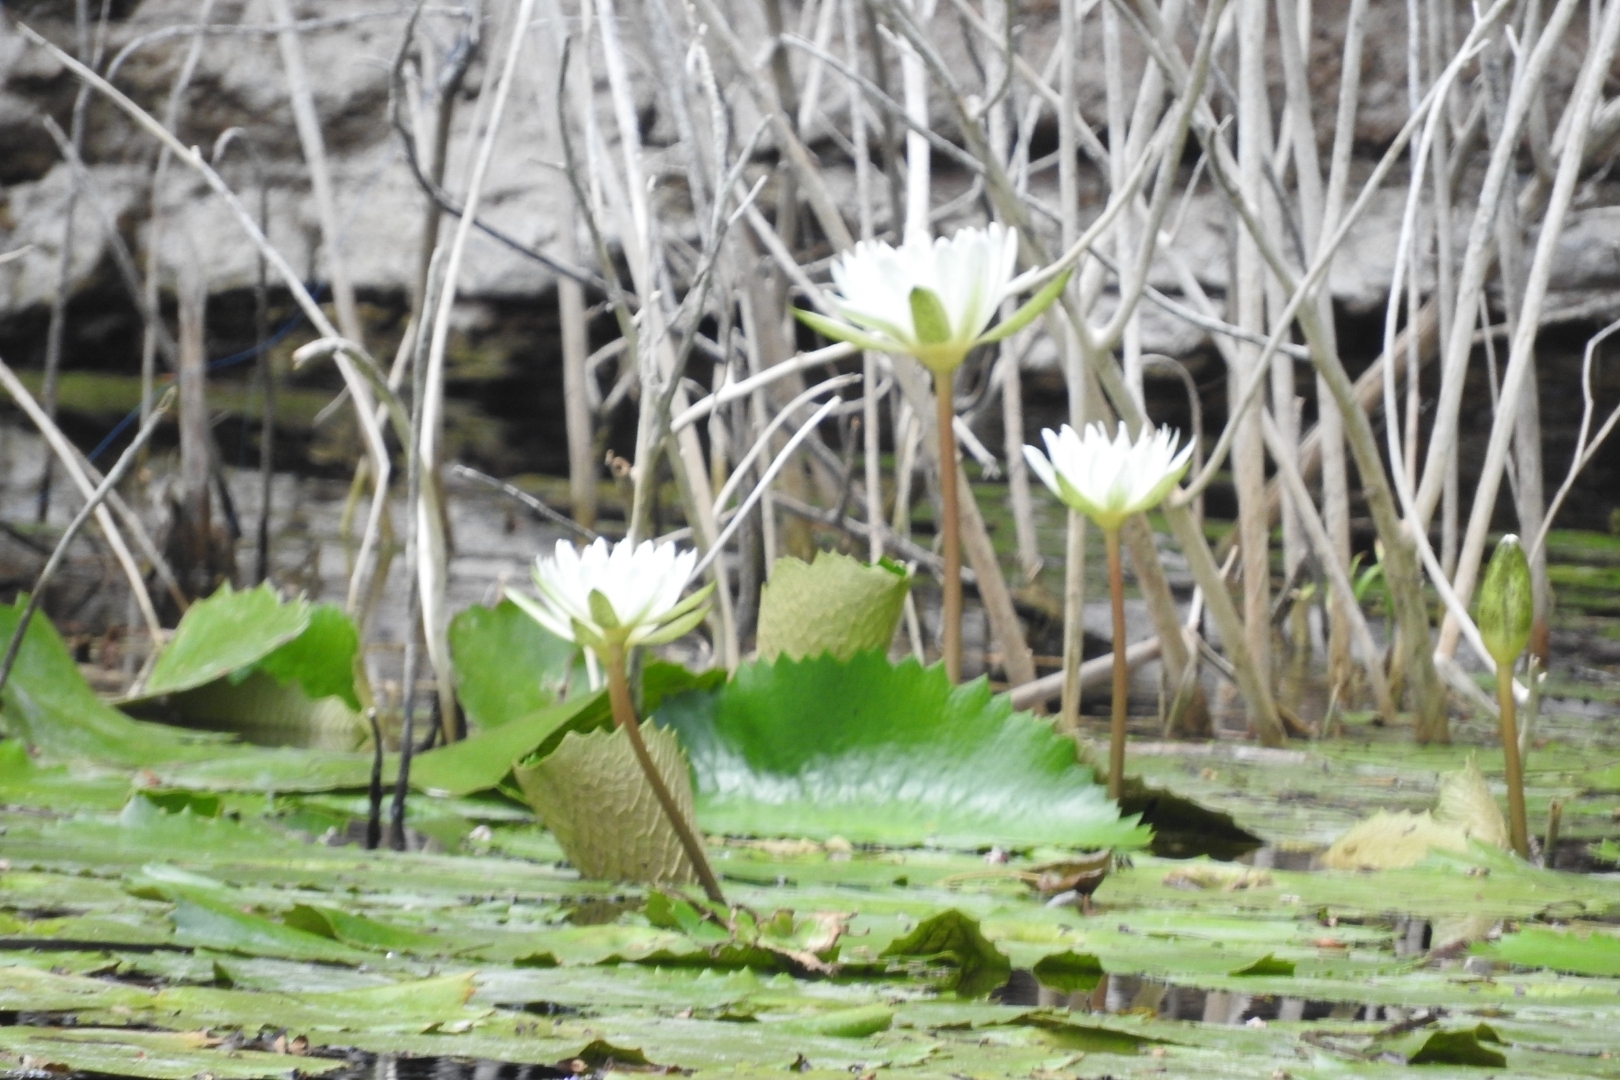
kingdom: Plantae
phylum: Tracheophyta
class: Magnoliopsida
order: Nymphaeales
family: Nymphaeaceae
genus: Nymphaea
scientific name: Nymphaea ampla
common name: Dotleaf waterlily
